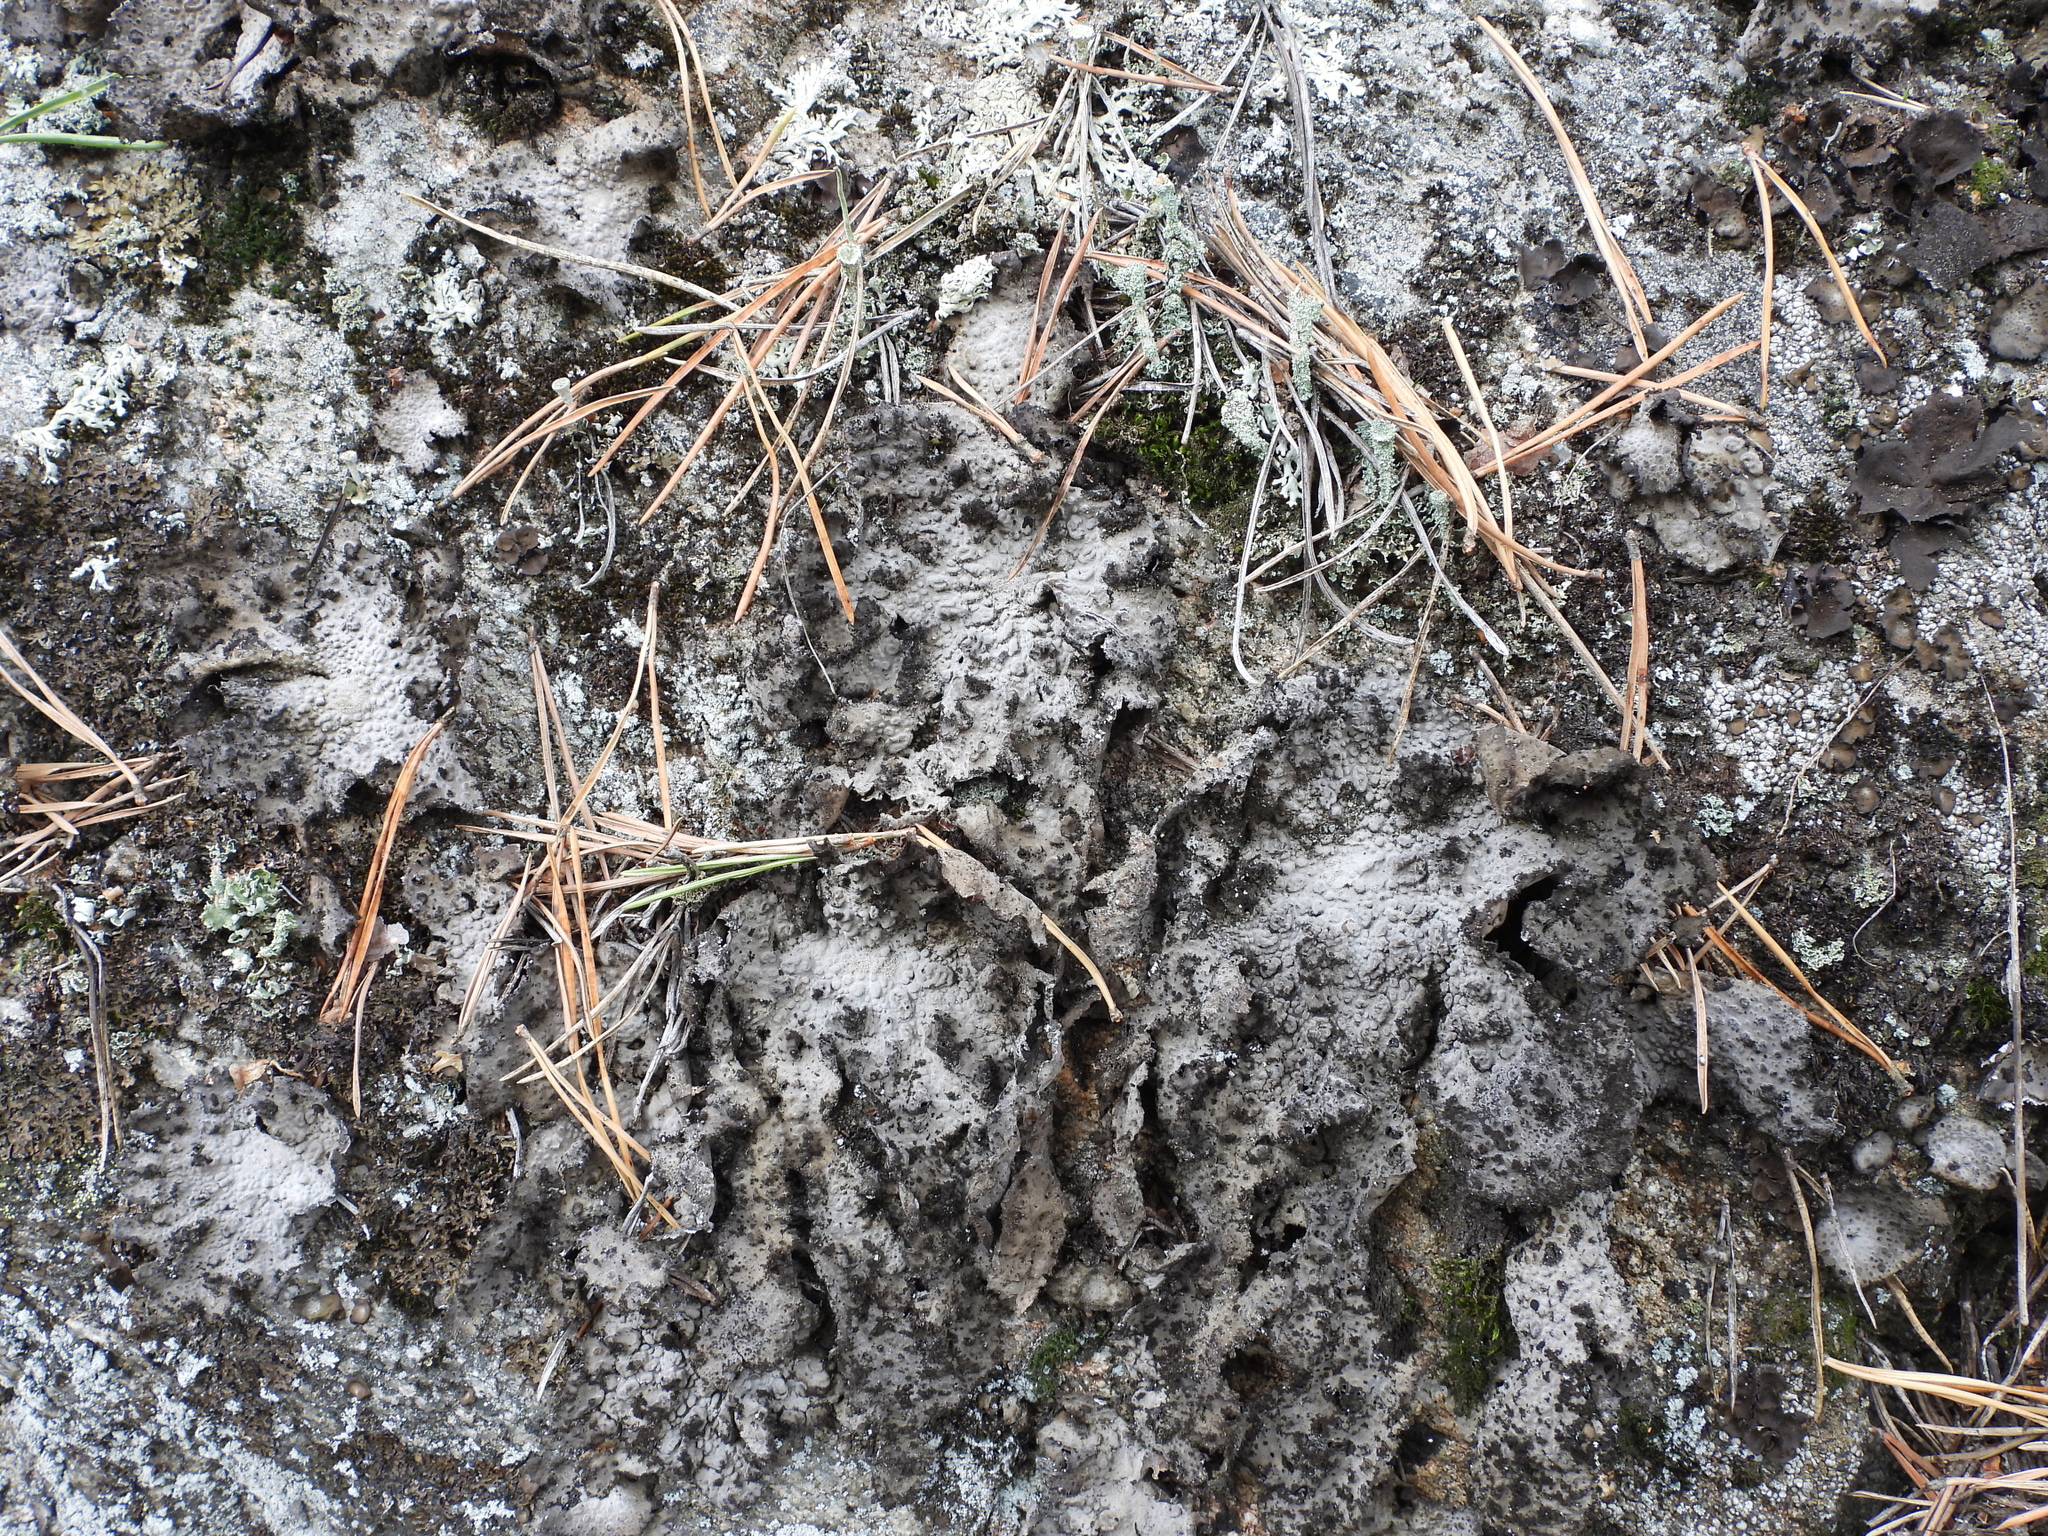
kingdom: Fungi
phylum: Ascomycota
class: Lecanoromycetes
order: Umbilicariales
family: Umbilicariaceae
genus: Lasallia
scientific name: Lasallia pustulata
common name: Blistered toadskin lichen
